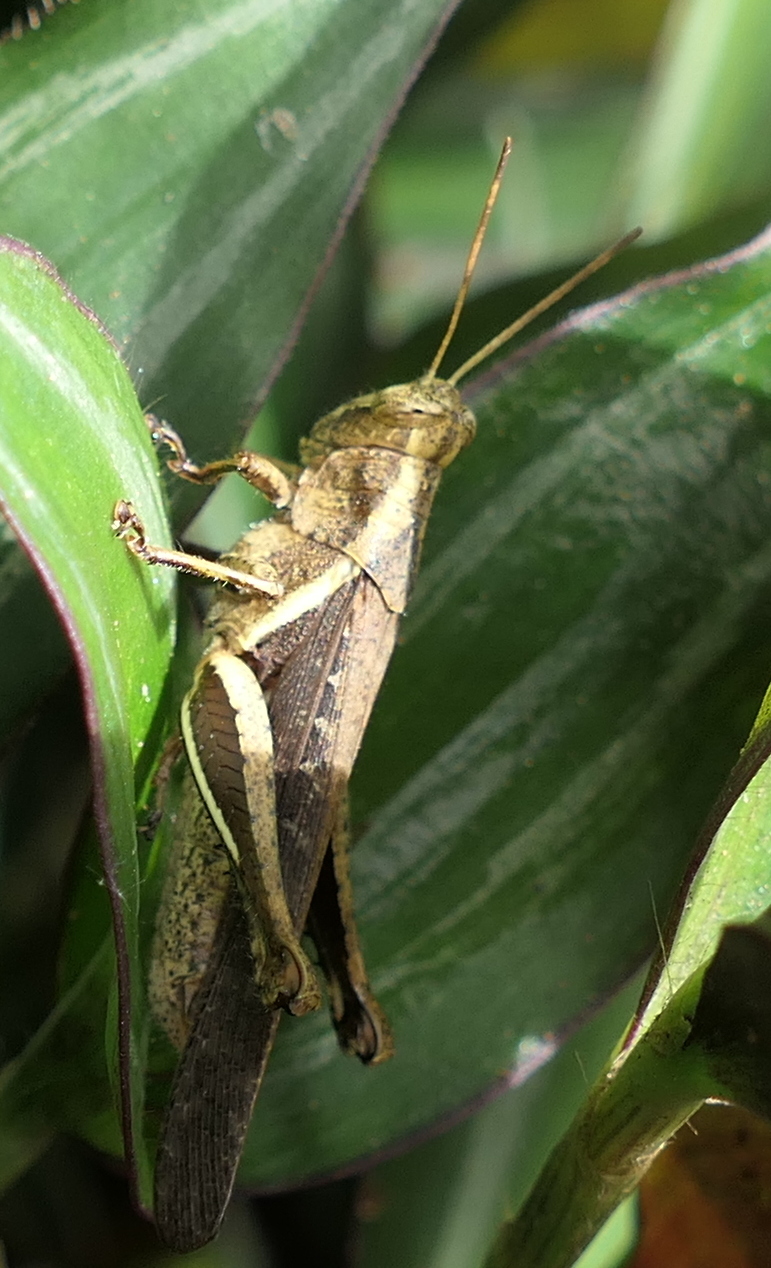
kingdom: Animalia
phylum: Arthropoda
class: Insecta
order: Orthoptera
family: Acrididae
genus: Abracris
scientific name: Abracris flavolineata
